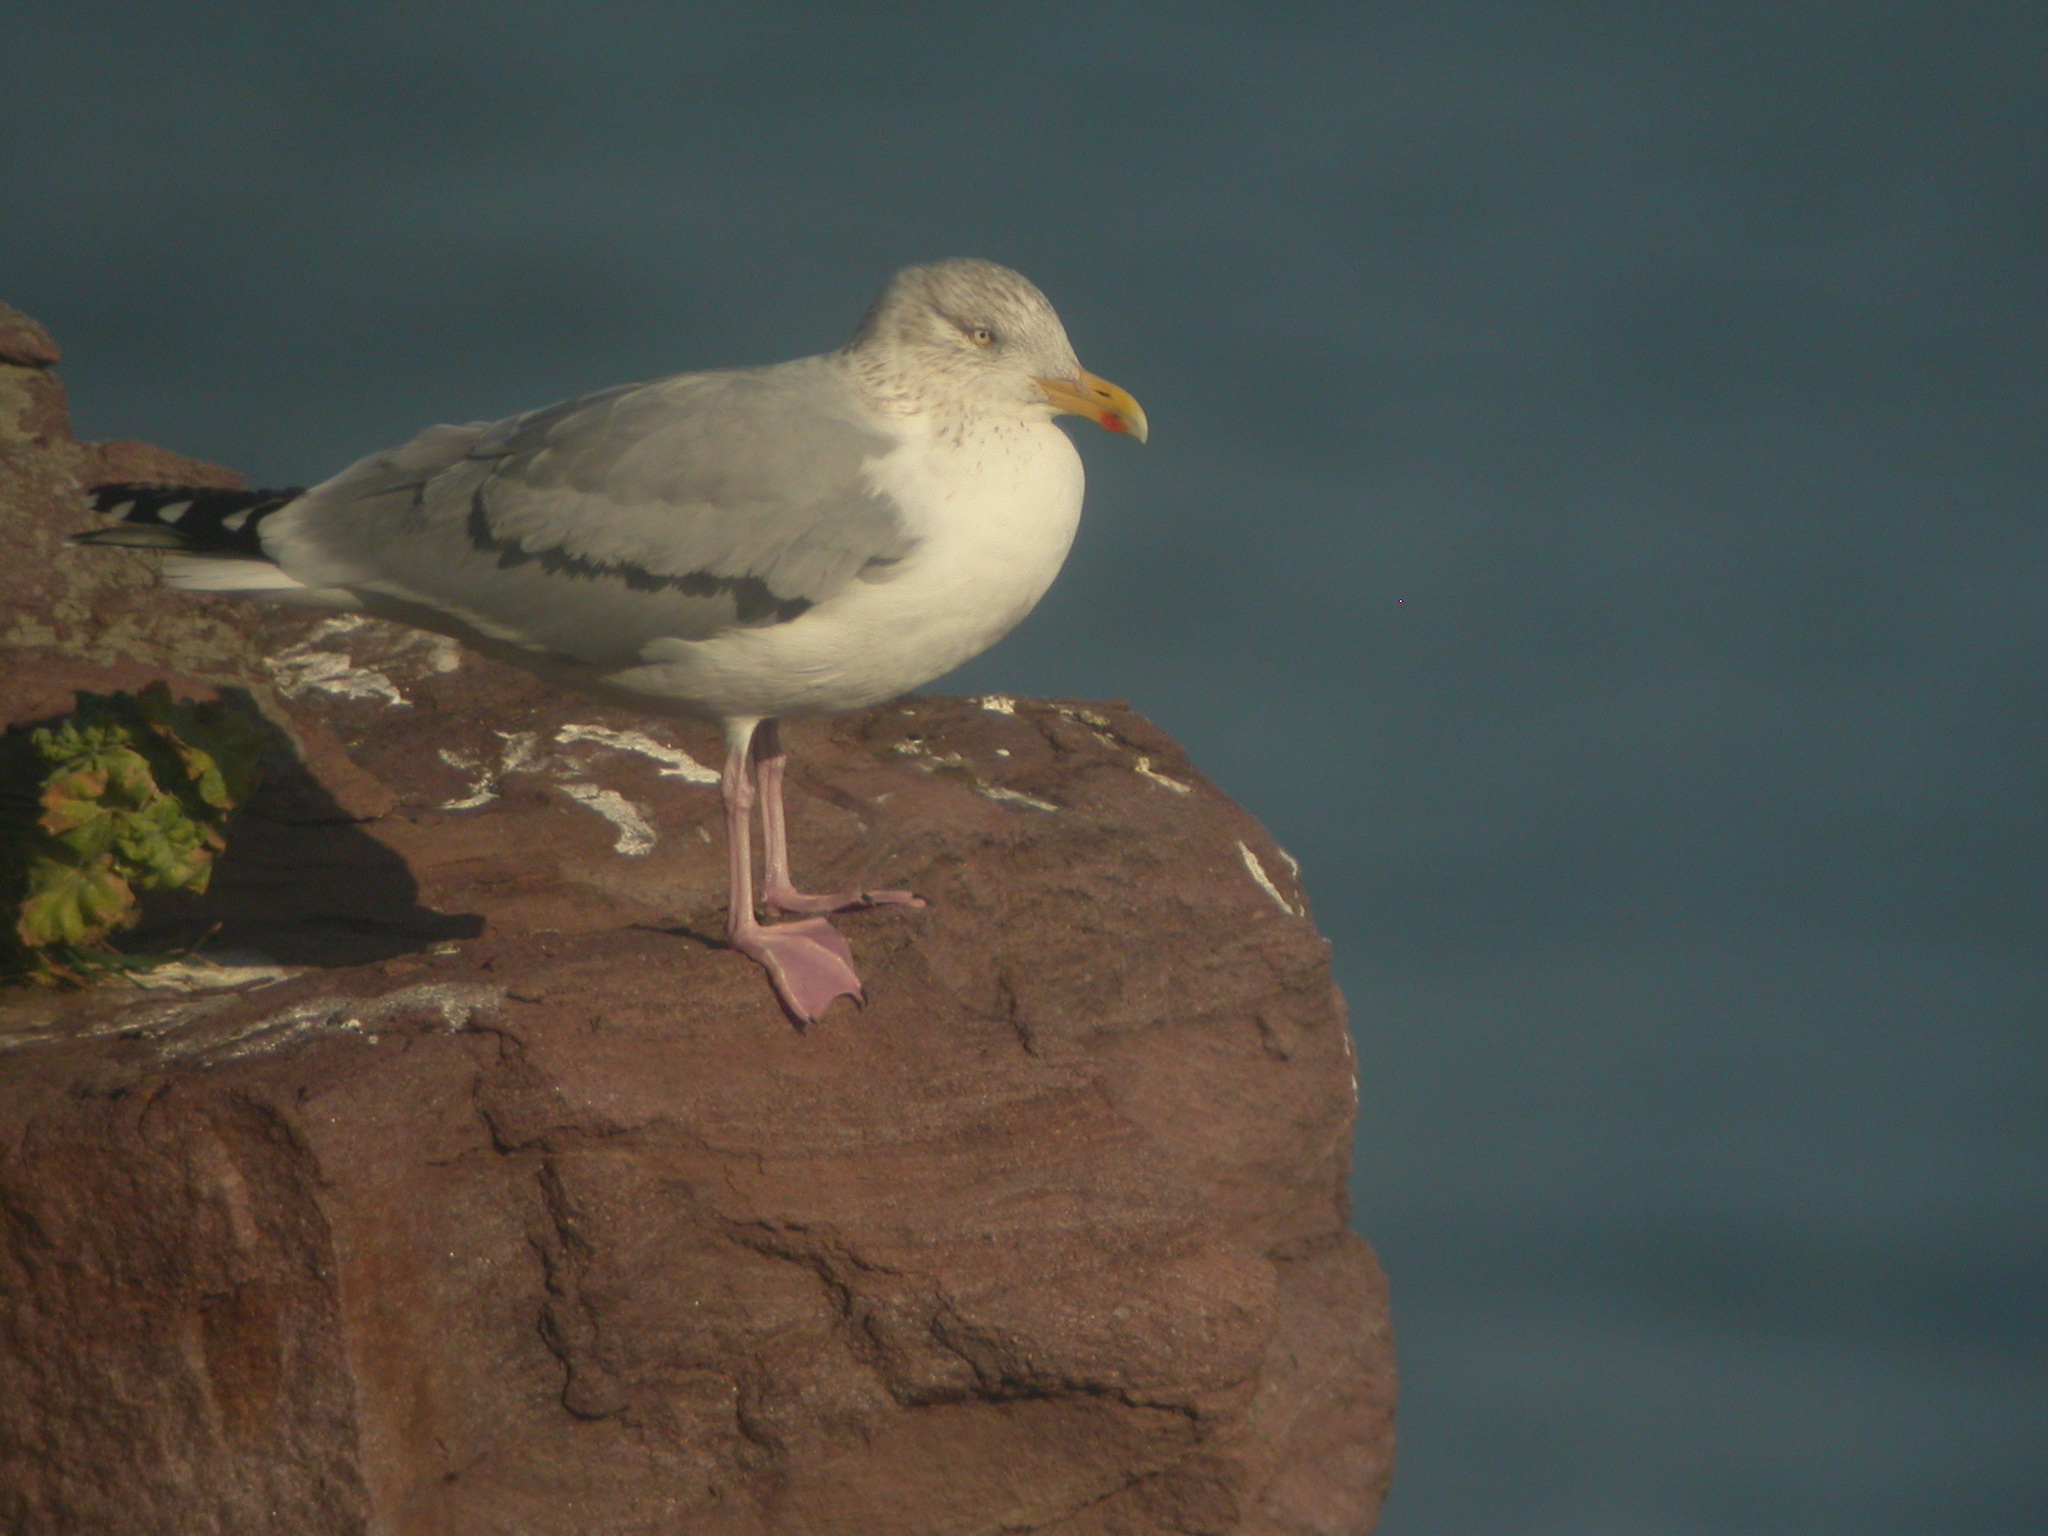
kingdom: Animalia
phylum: Chordata
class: Aves
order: Charadriiformes
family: Laridae
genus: Larus
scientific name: Larus argentatus
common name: Herring gull
